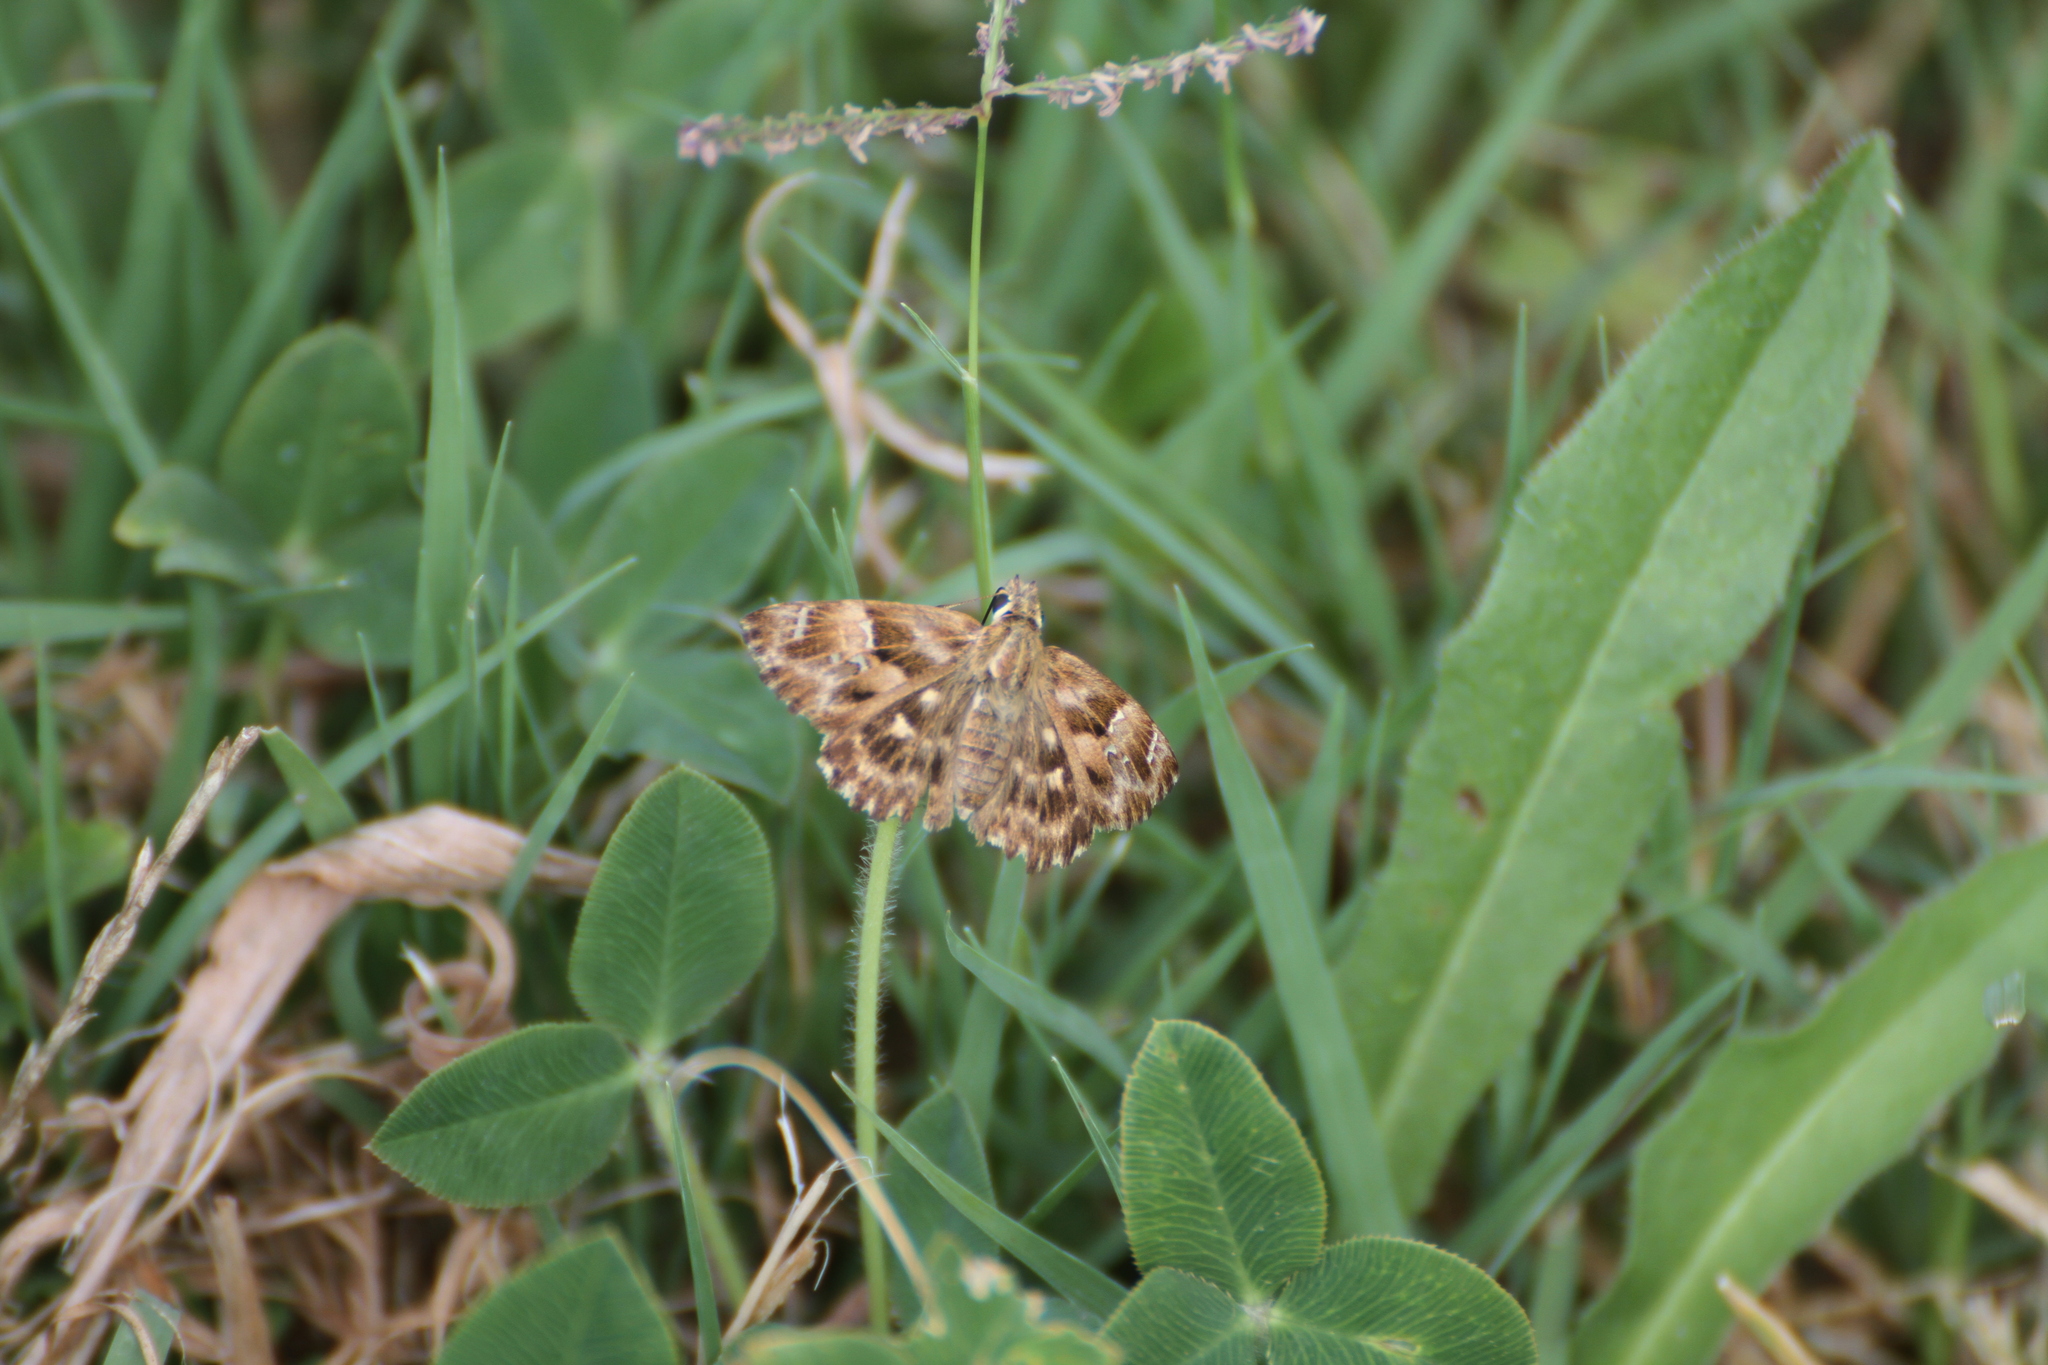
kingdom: Animalia
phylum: Arthropoda
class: Insecta
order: Lepidoptera
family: Hesperiidae
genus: Carcharodus
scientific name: Carcharodus alceae
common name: Mallow skipper
